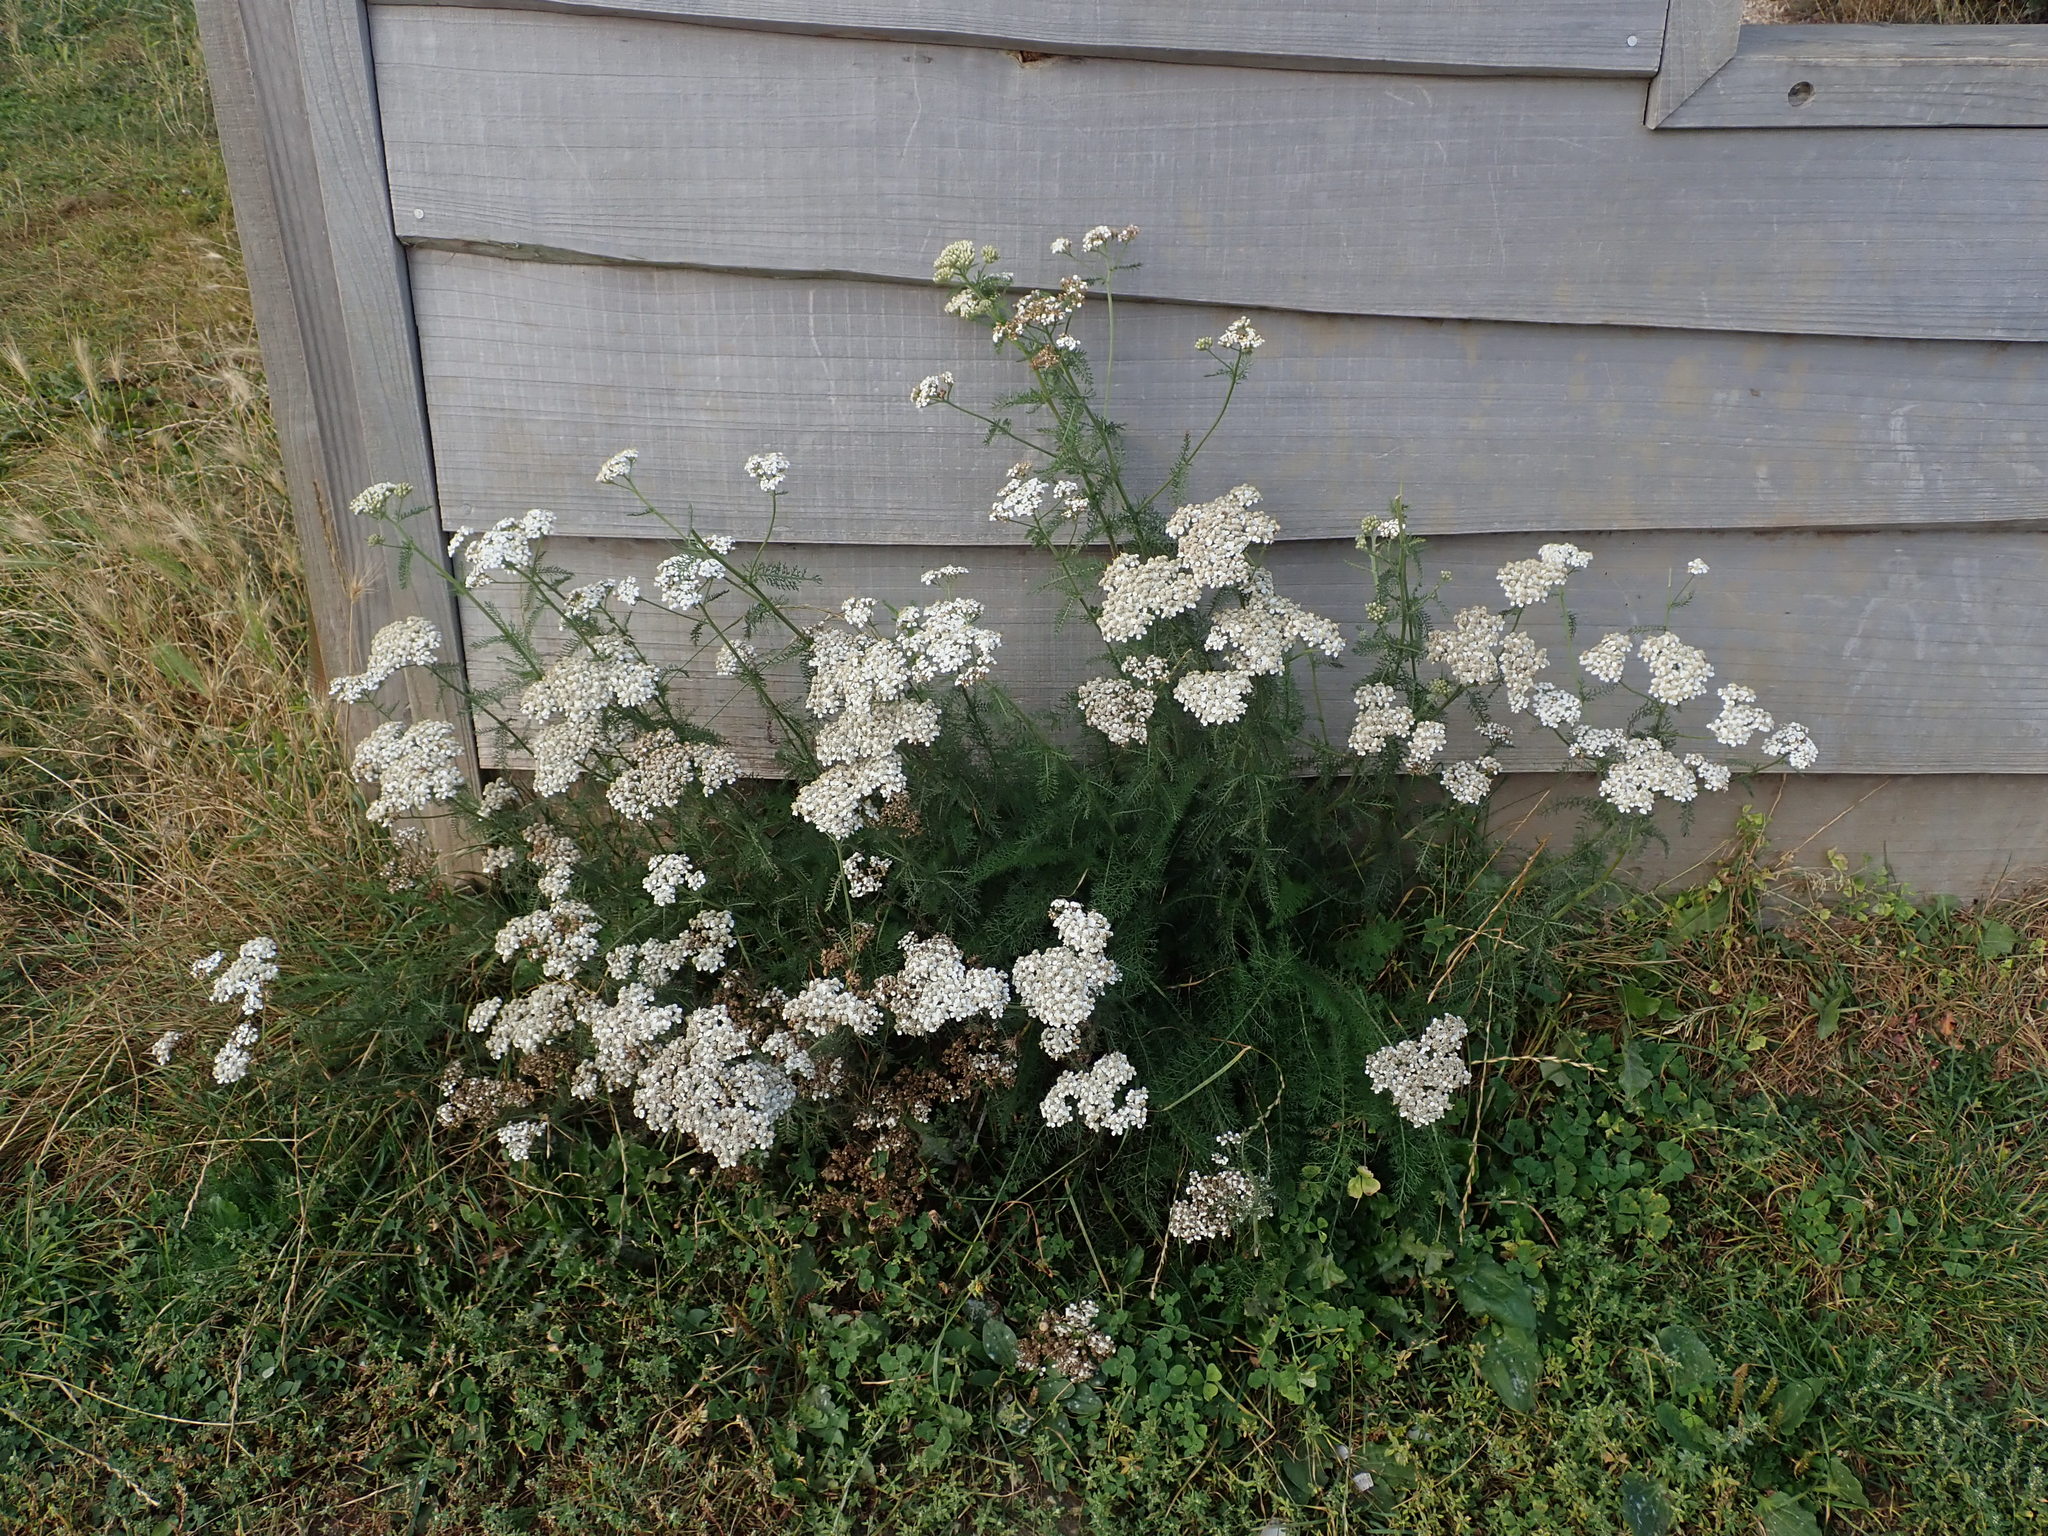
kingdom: Plantae
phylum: Tracheophyta
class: Magnoliopsida
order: Asterales
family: Asteraceae
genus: Achillea
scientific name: Achillea millefolium
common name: Yarrow
